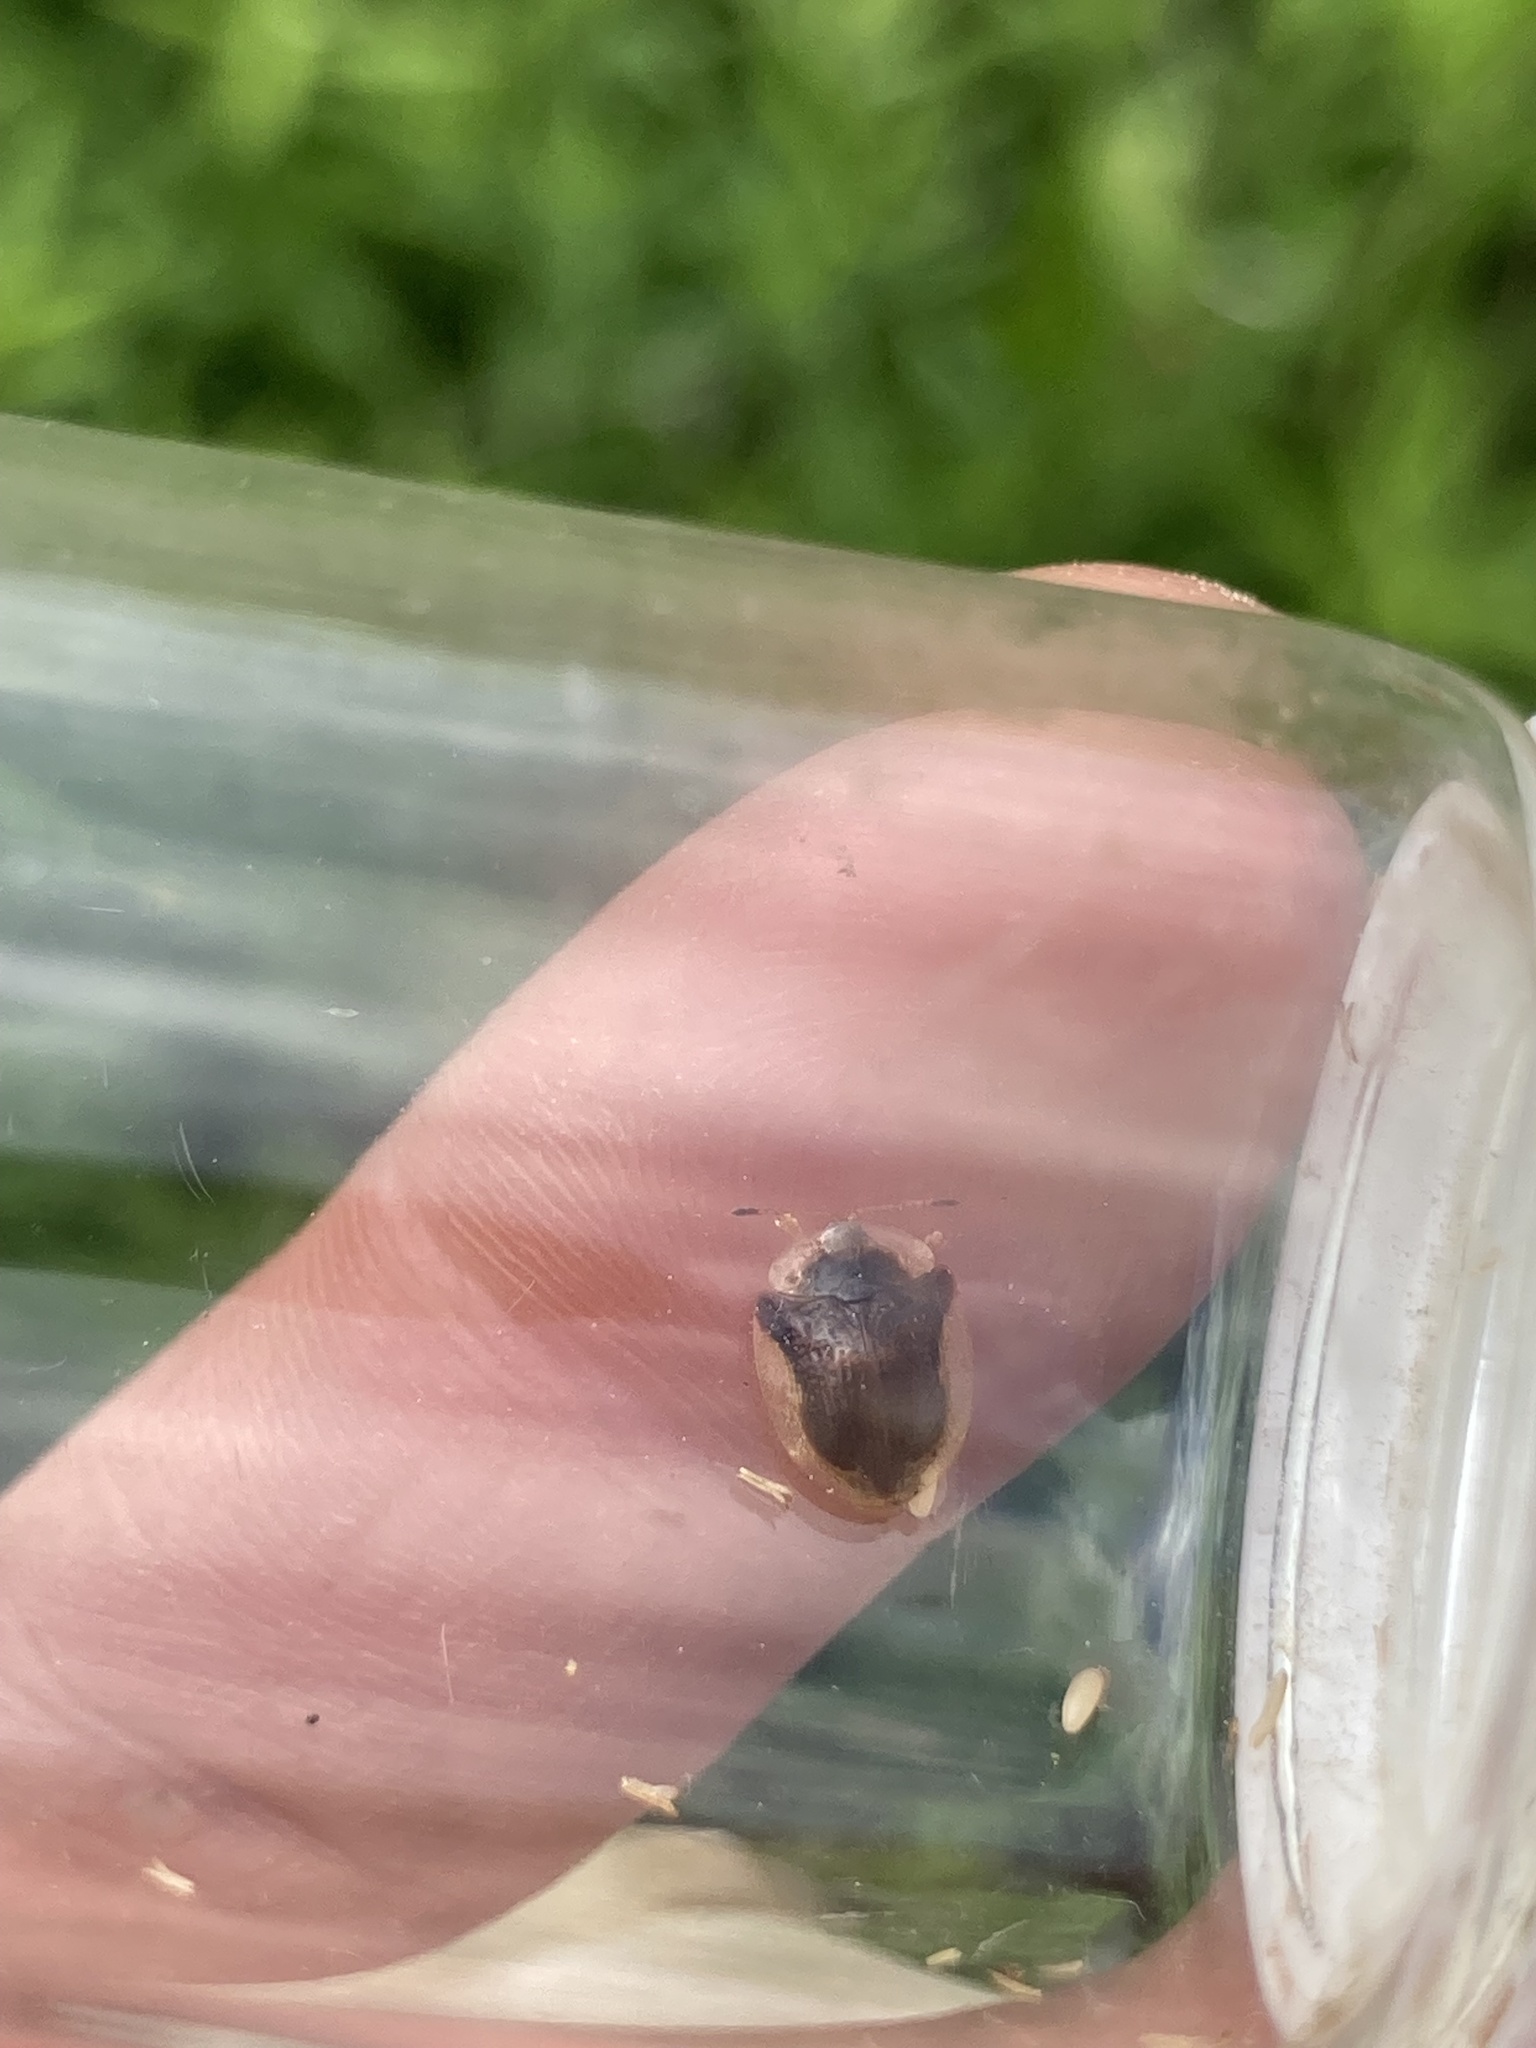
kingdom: Animalia
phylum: Arthropoda
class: Insecta
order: Coleoptera
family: Chrysomelidae
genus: Deloyala
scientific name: Deloyala guttata
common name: Mottled tortoise beetle
